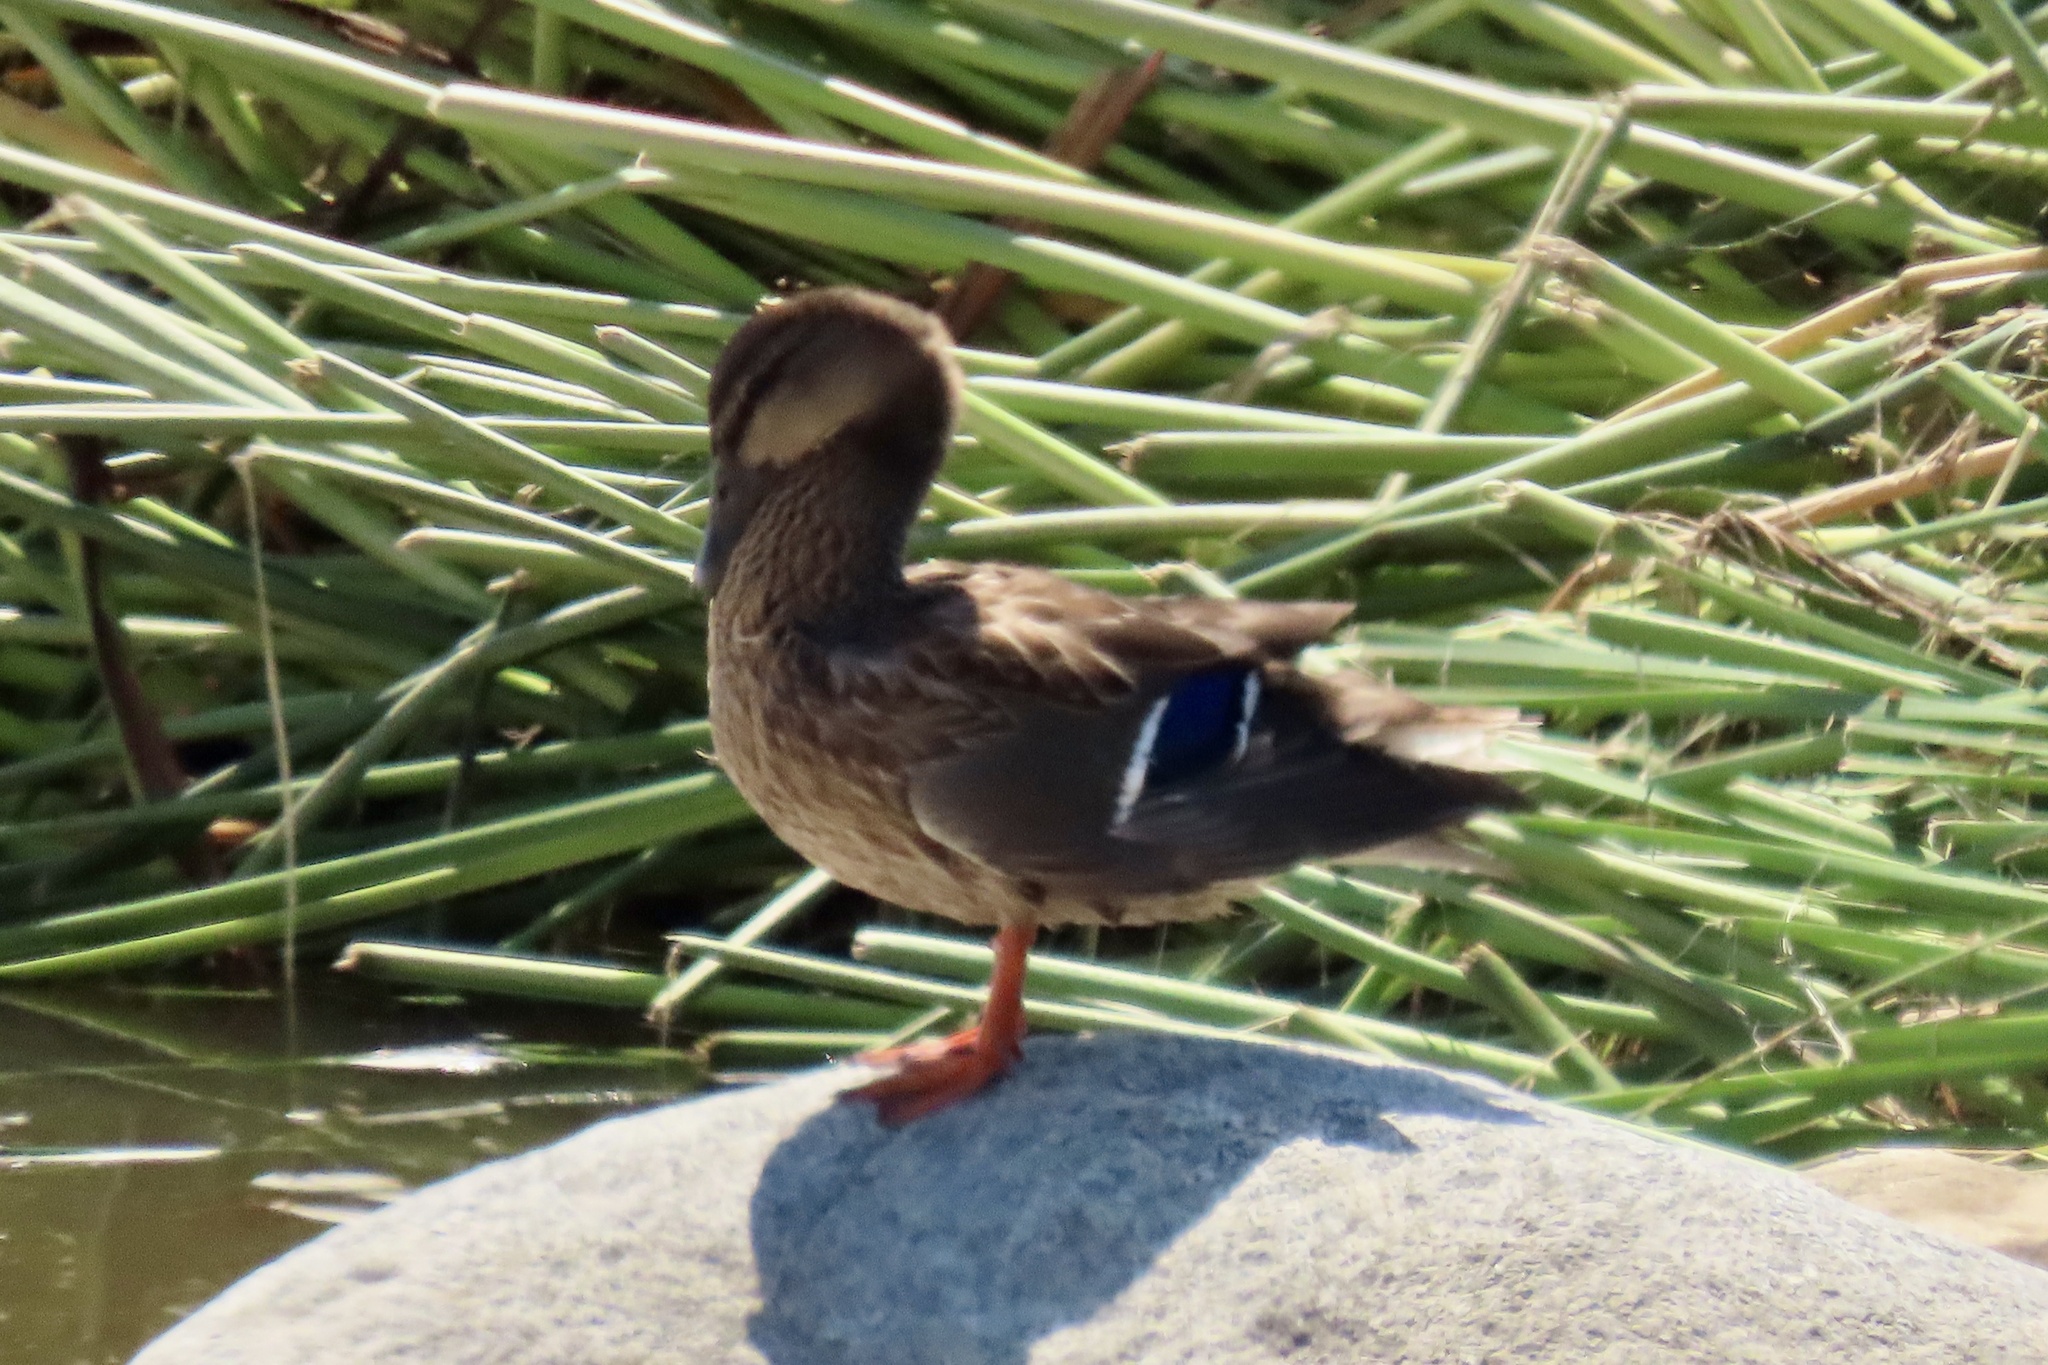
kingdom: Animalia
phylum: Chordata
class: Aves
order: Anseriformes
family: Anatidae
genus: Anas
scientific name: Anas platyrhynchos
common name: Mallard
